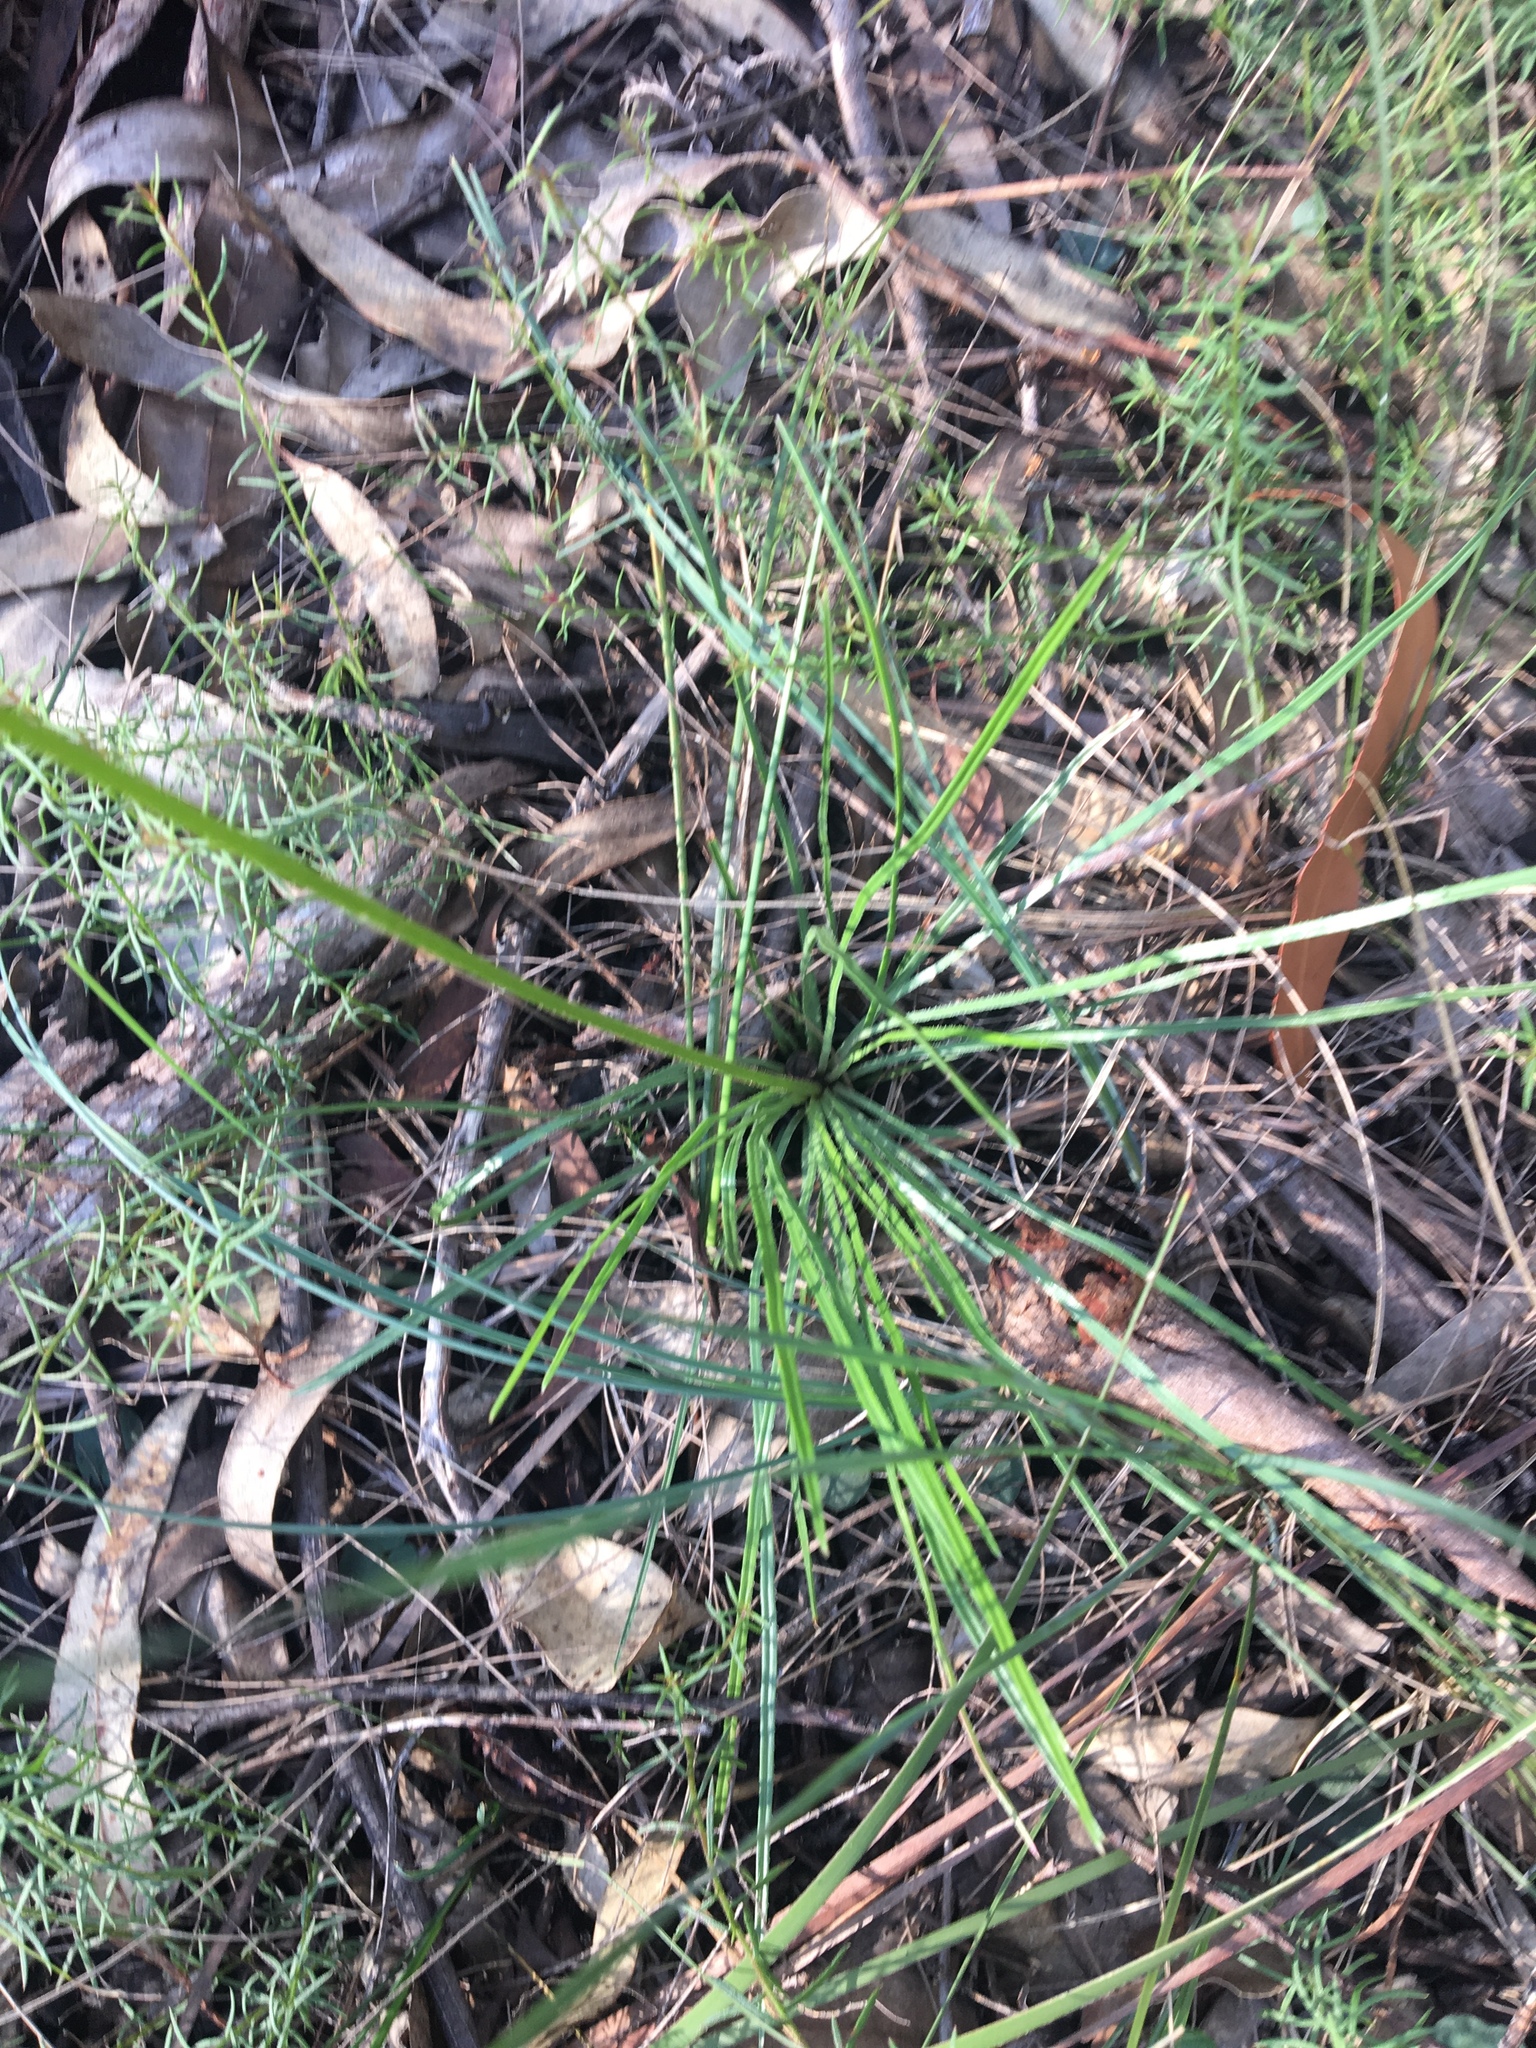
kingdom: Plantae
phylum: Tracheophyta
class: Magnoliopsida
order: Asterales
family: Stylidiaceae
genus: Stylidium
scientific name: Stylidium graminifolium
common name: Grass triggerplant
